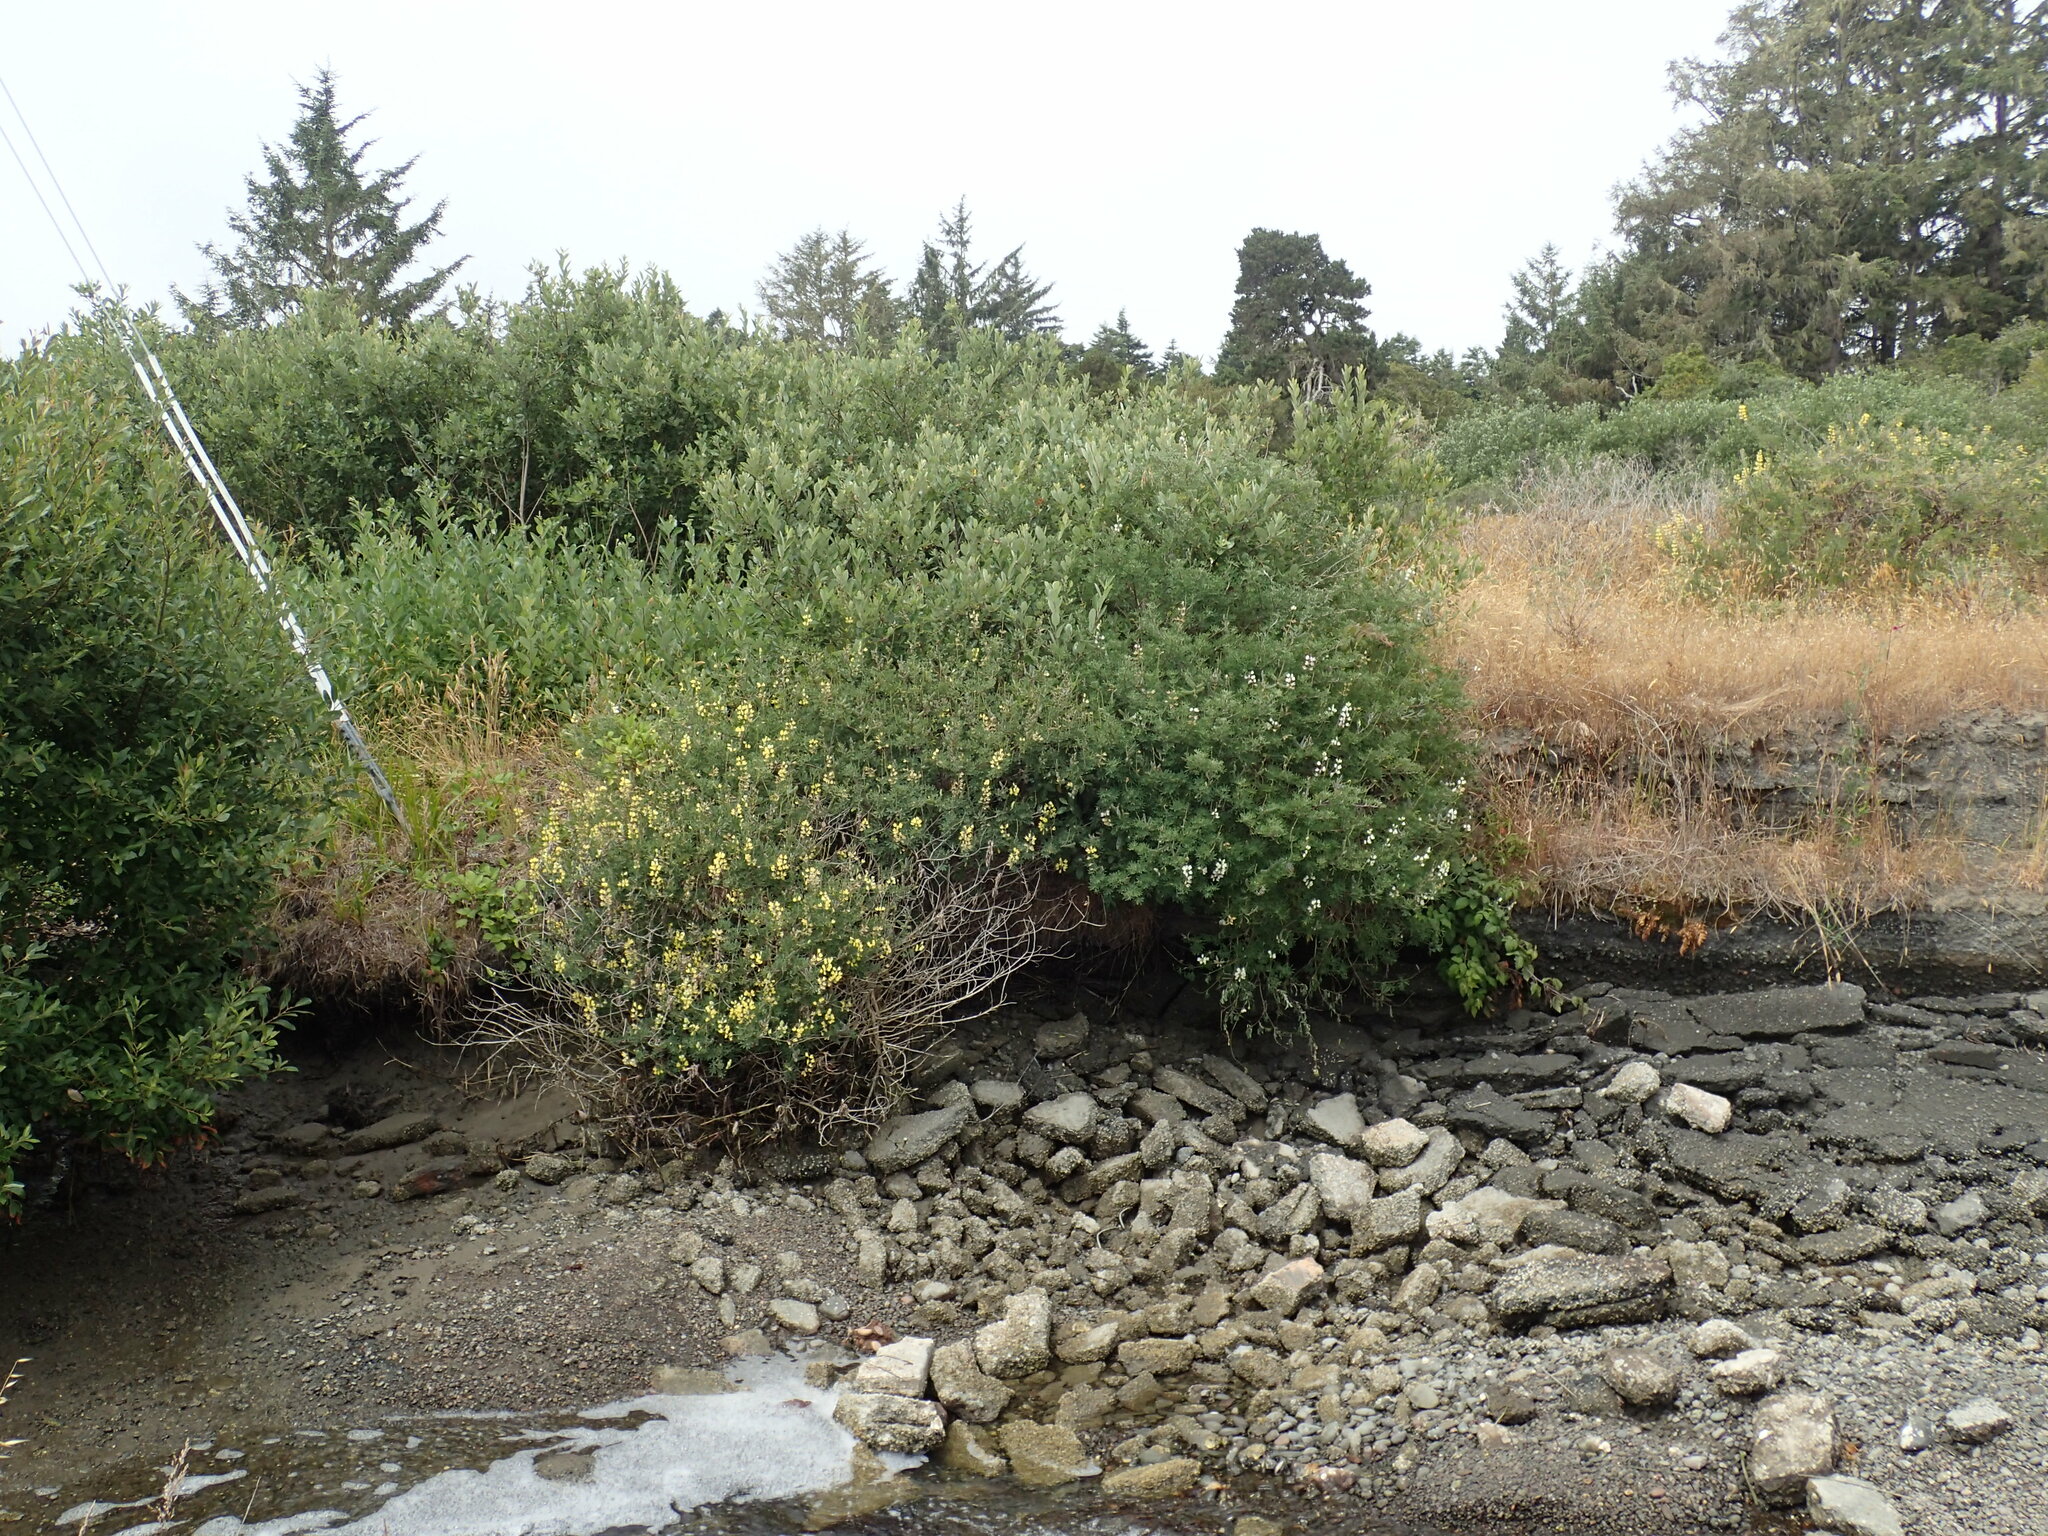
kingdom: Plantae
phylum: Tracheophyta
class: Magnoliopsida
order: Fabales
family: Fabaceae
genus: Lupinus
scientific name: Lupinus arboreus
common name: Yellow bush lupine
